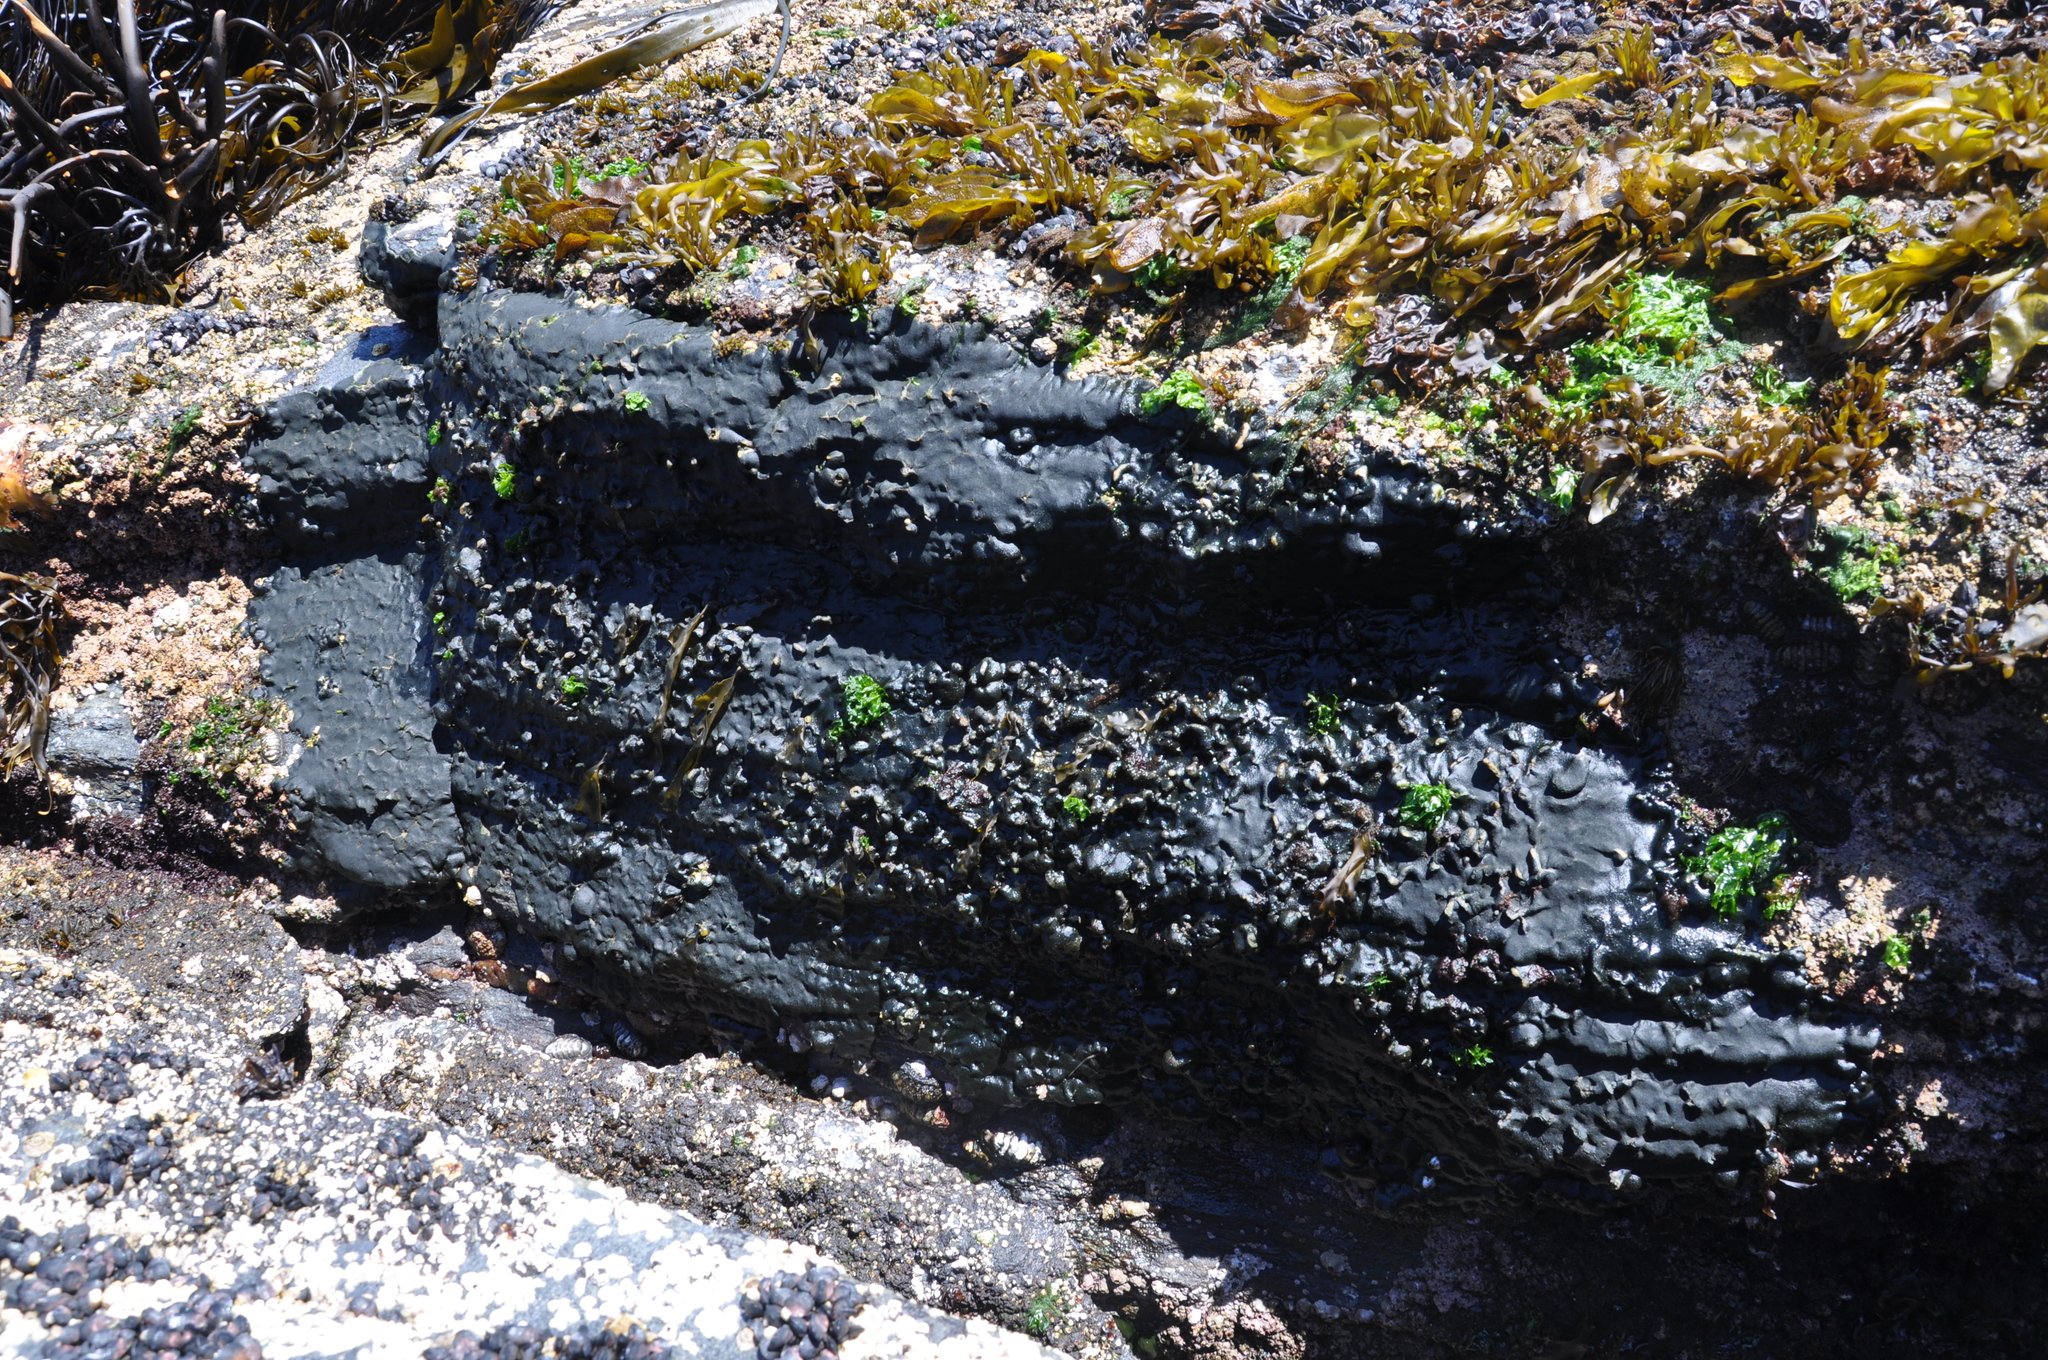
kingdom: Plantae
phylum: Chlorophyta
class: Ulvophyceae
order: Bryopsidales
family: Codiaceae
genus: Codium
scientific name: Codium
